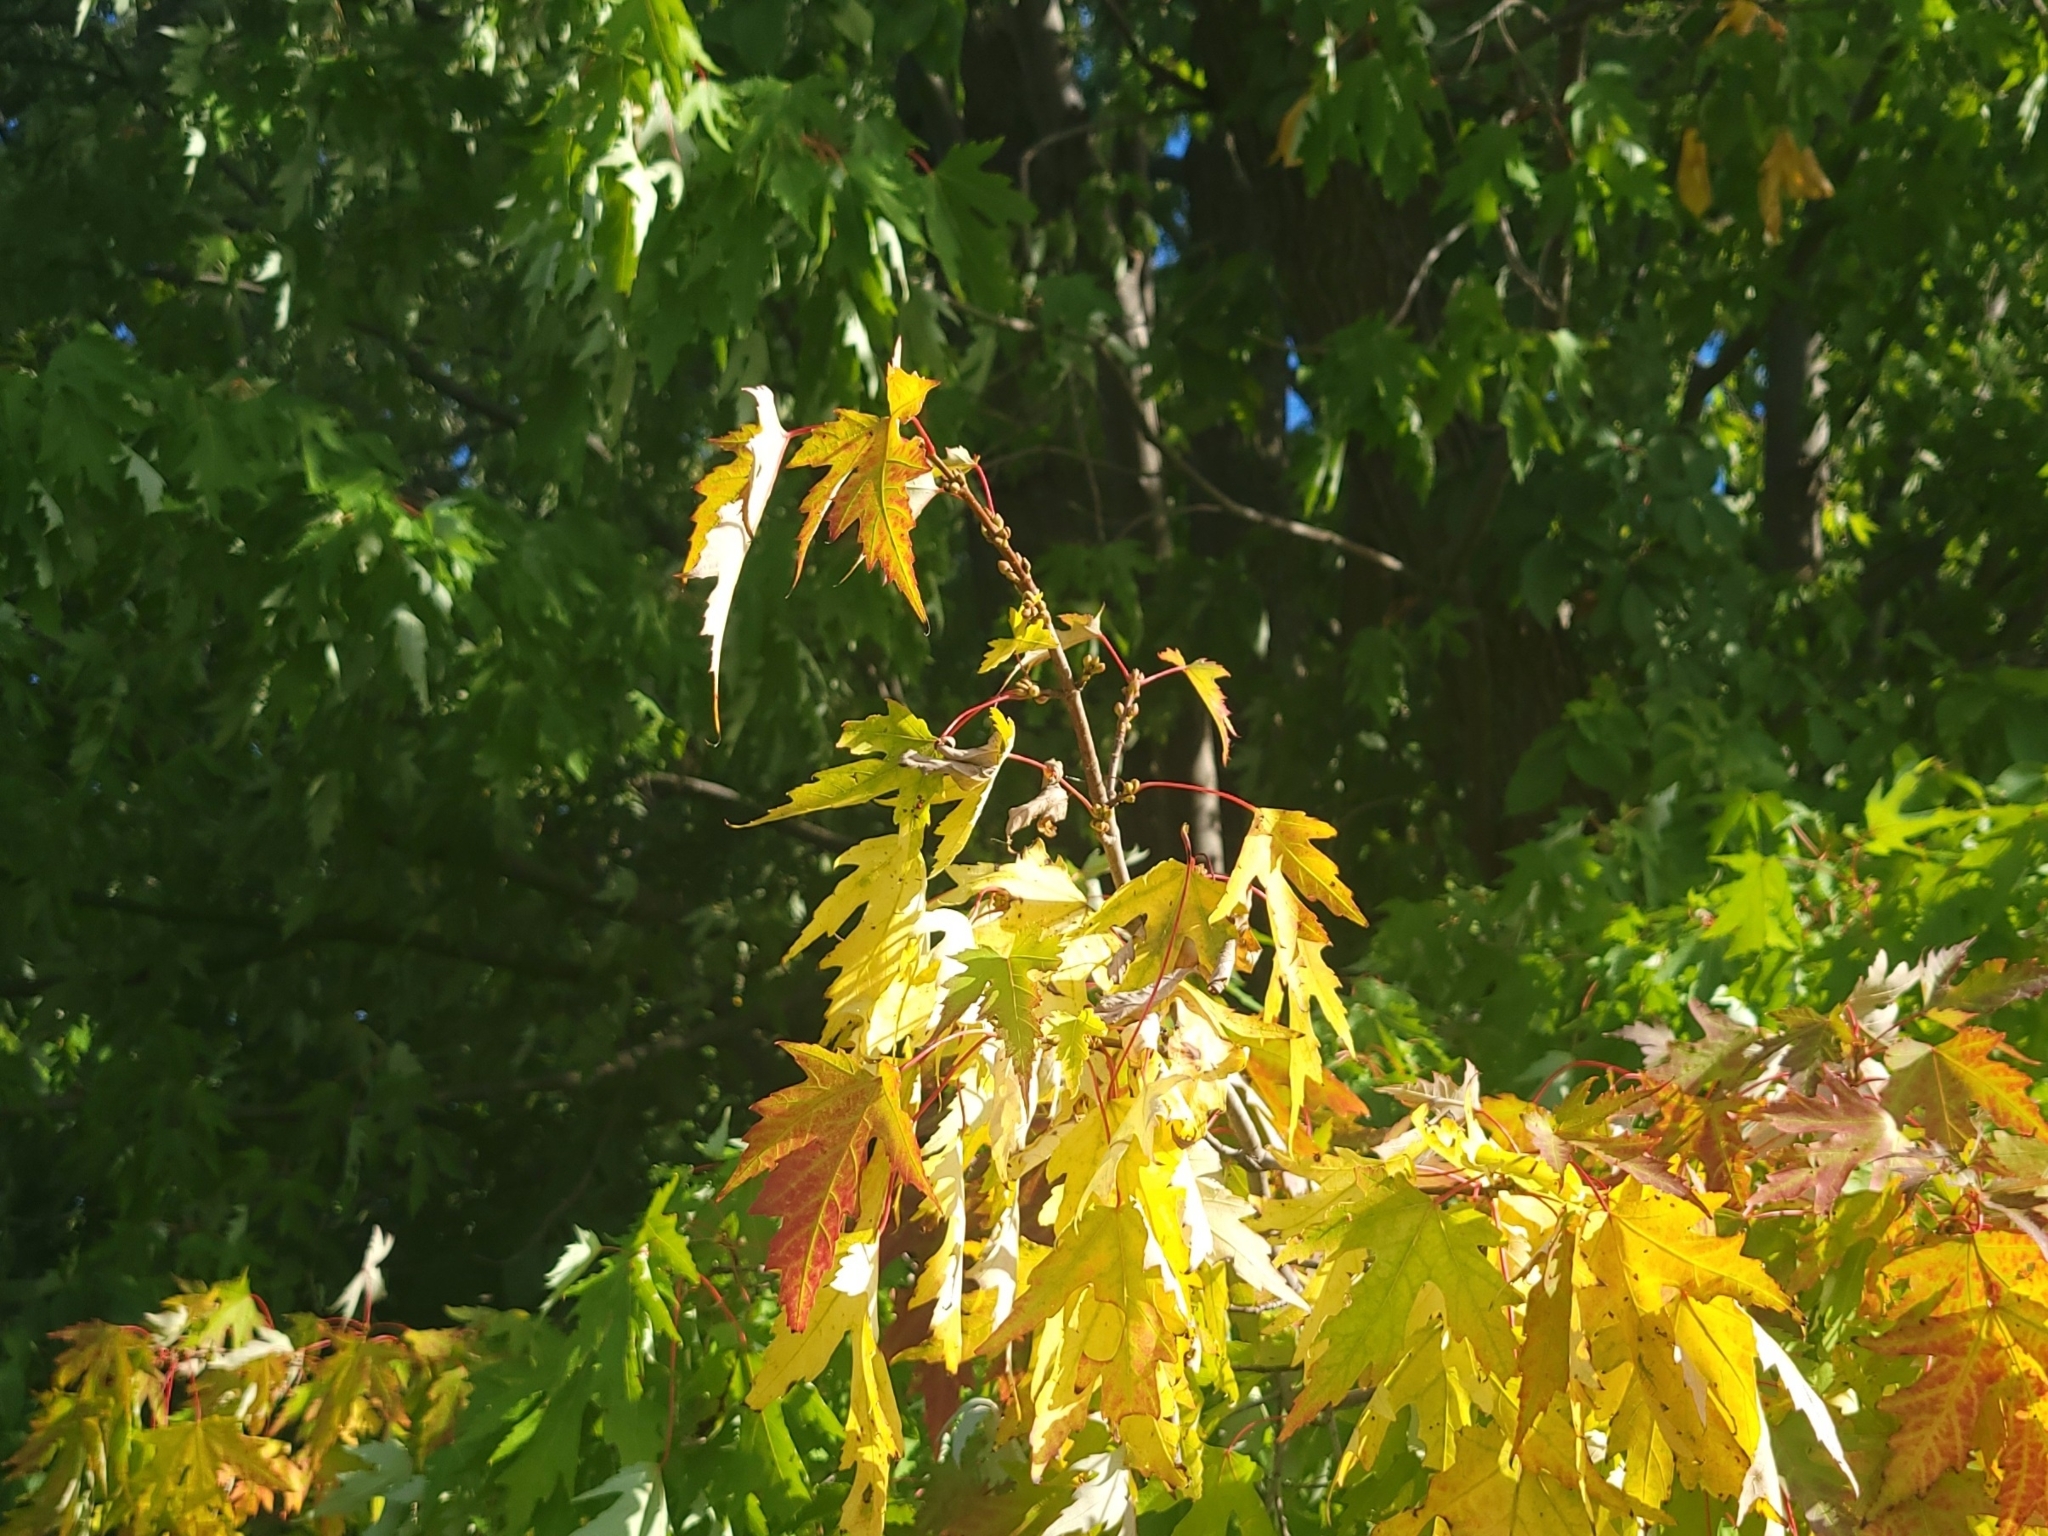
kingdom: Plantae
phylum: Tracheophyta
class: Magnoliopsida
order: Sapindales
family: Sapindaceae
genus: Acer
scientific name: Acer saccharinum
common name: Silver maple
